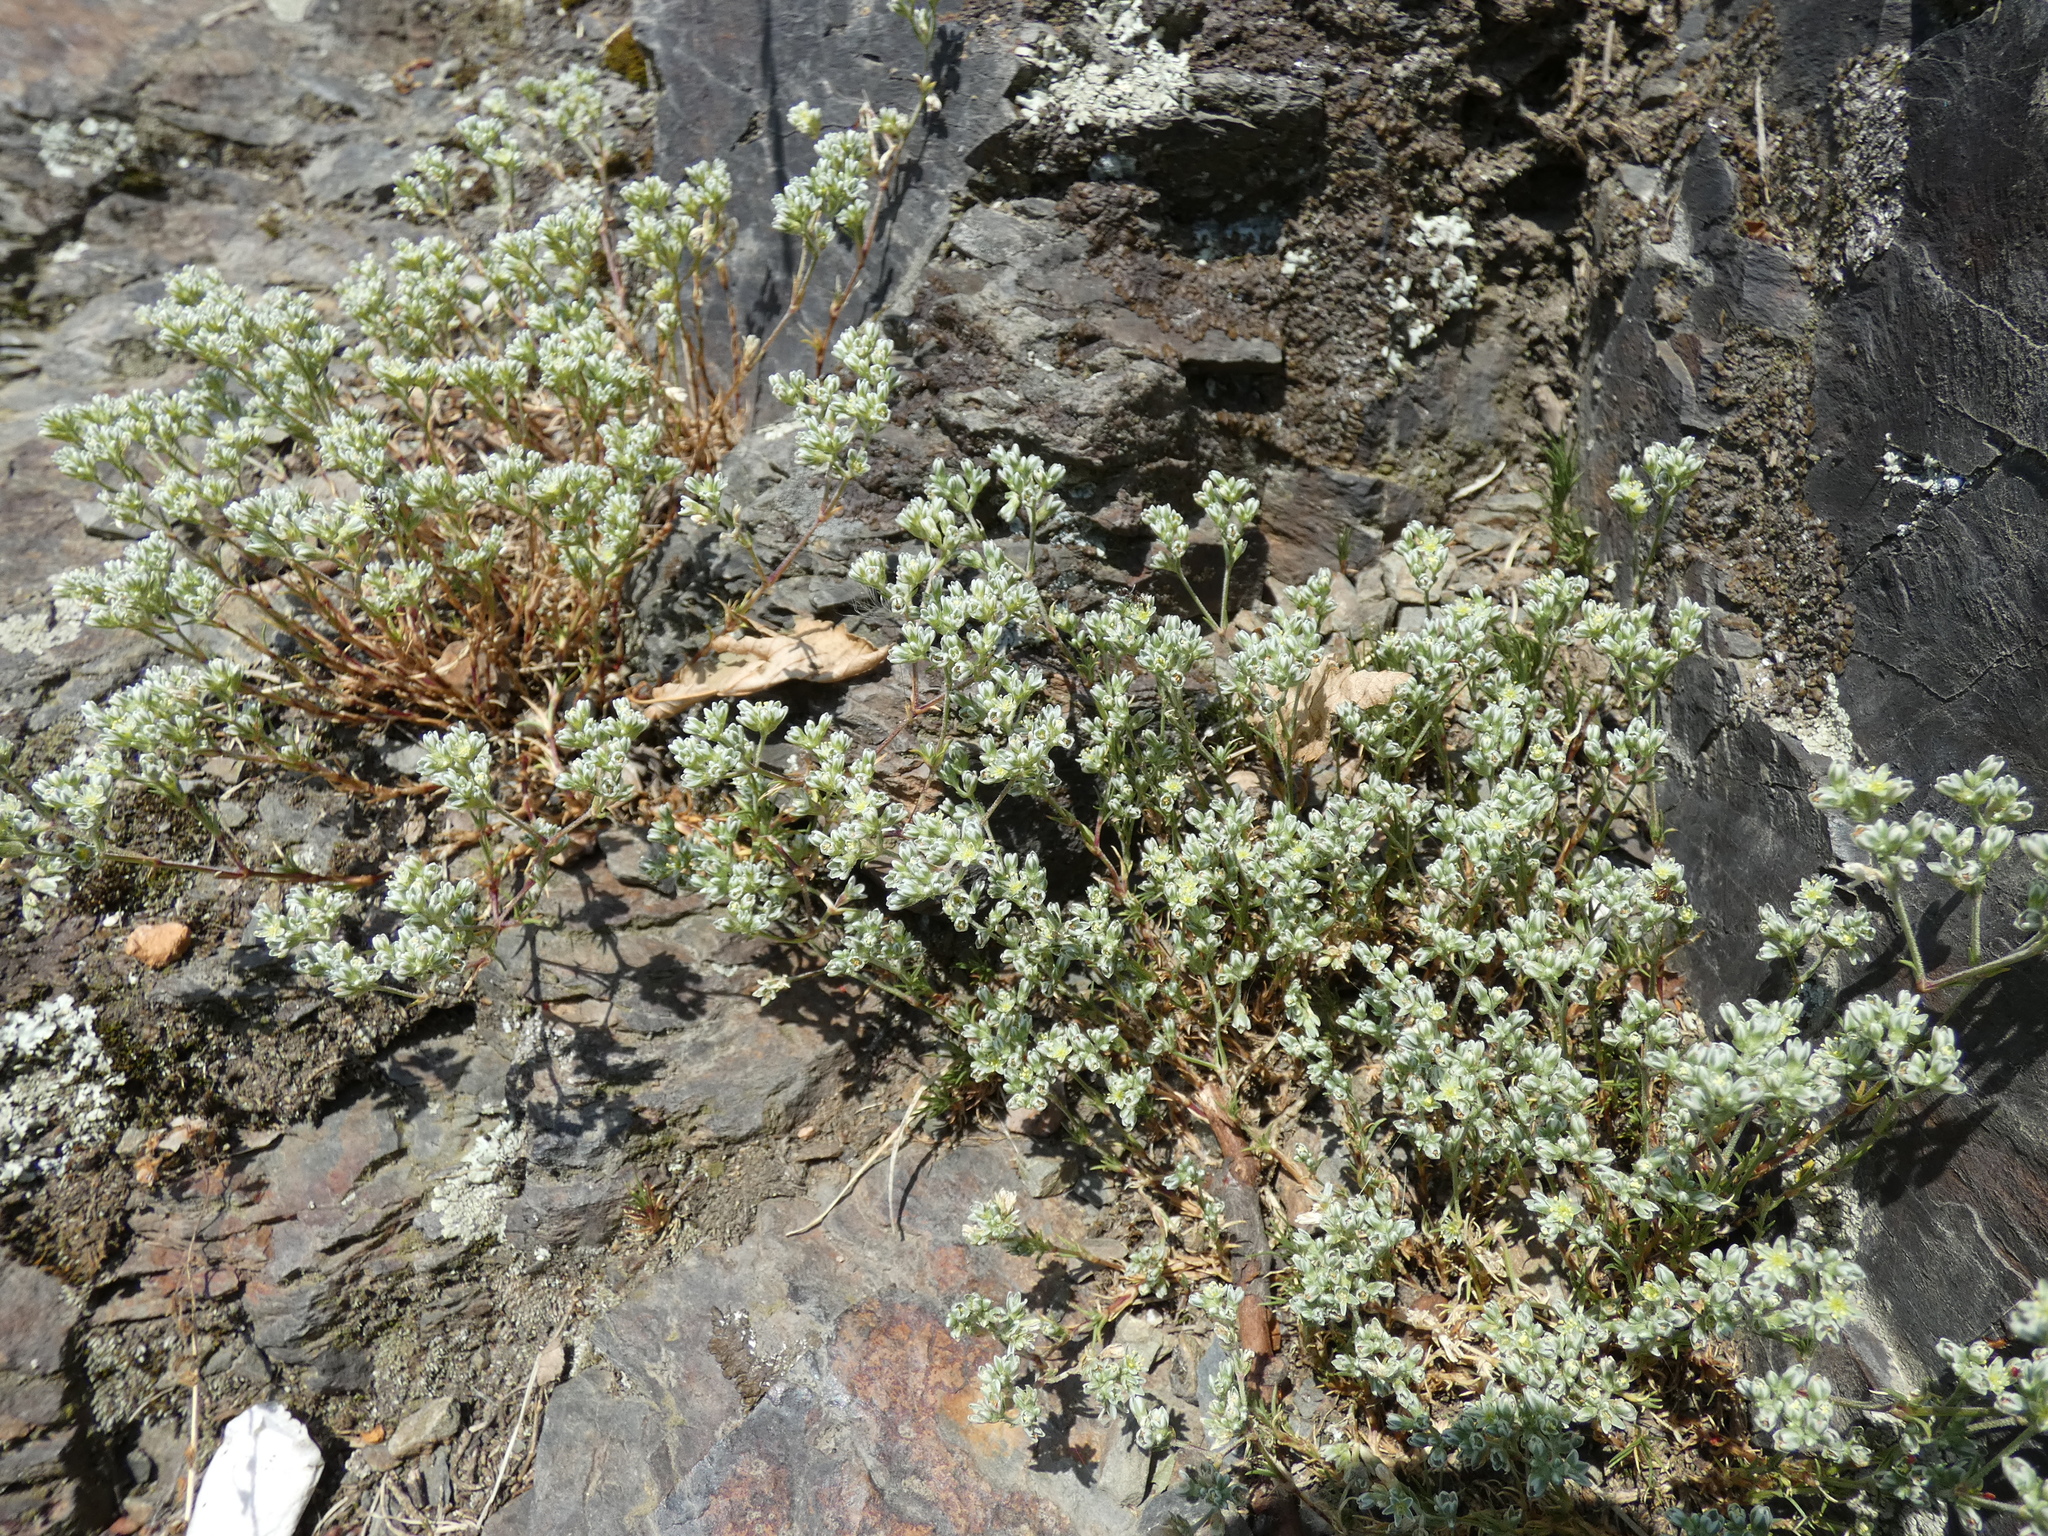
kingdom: Plantae
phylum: Tracheophyta
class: Magnoliopsida
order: Caryophyllales
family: Caryophyllaceae
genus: Scleranthus
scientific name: Scleranthus perennis
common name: Perennial knawel
